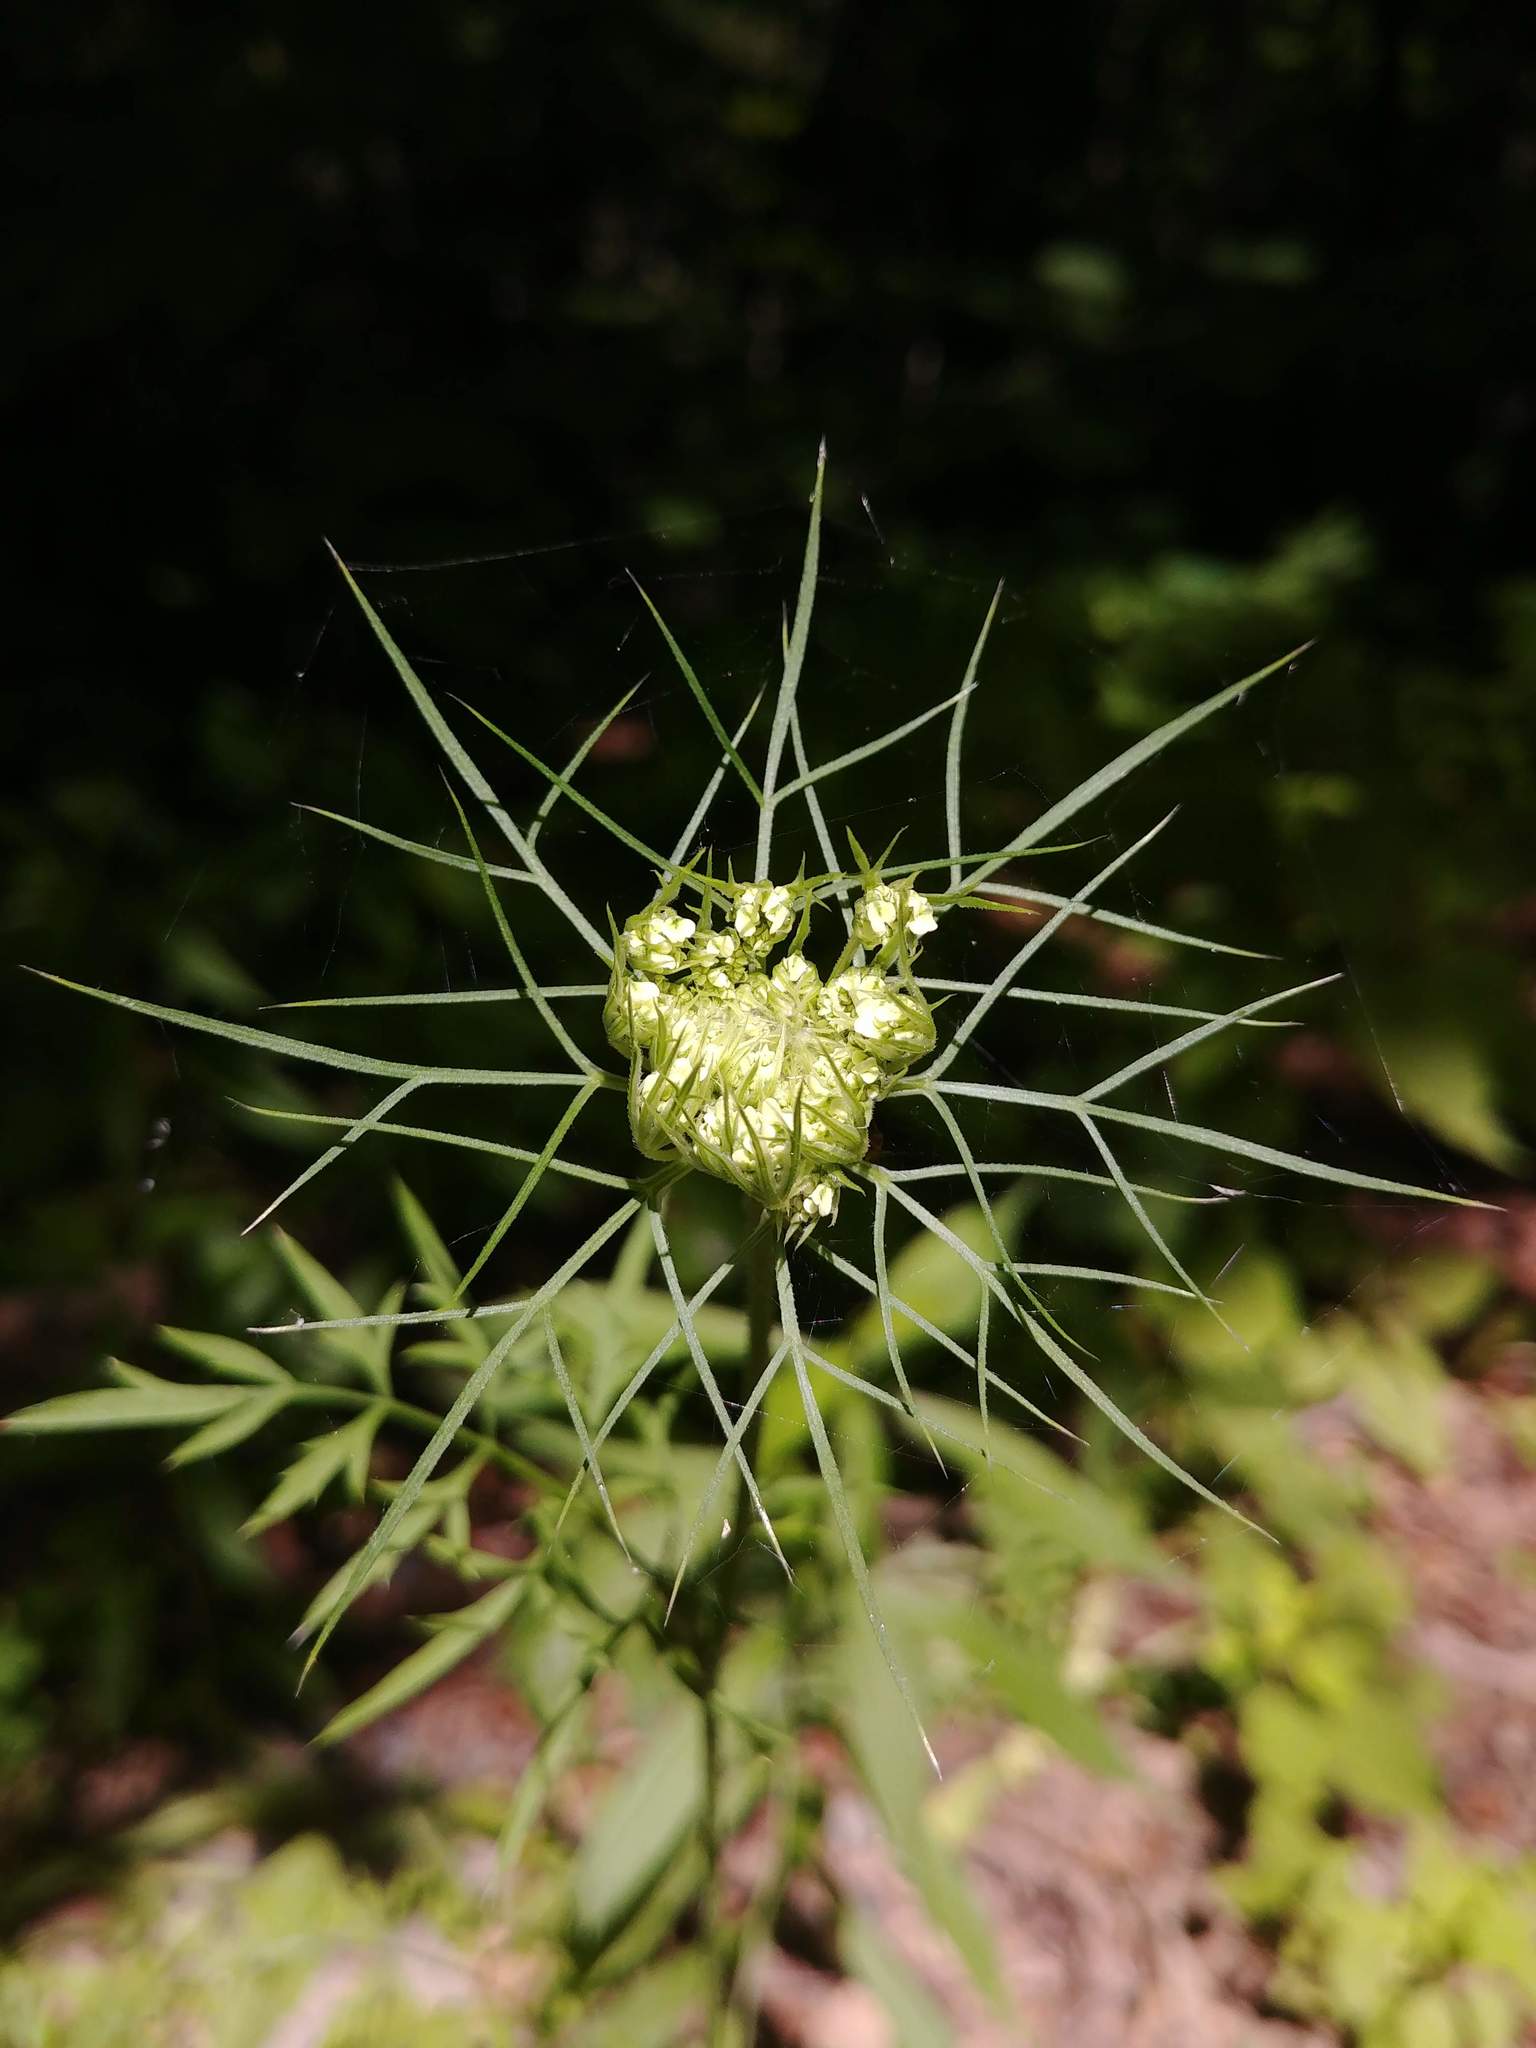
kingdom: Plantae
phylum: Tracheophyta
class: Magnoliopsida
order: Apiales
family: Apiaceae
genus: Daucus
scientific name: Daucus carota
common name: Wild carrot
